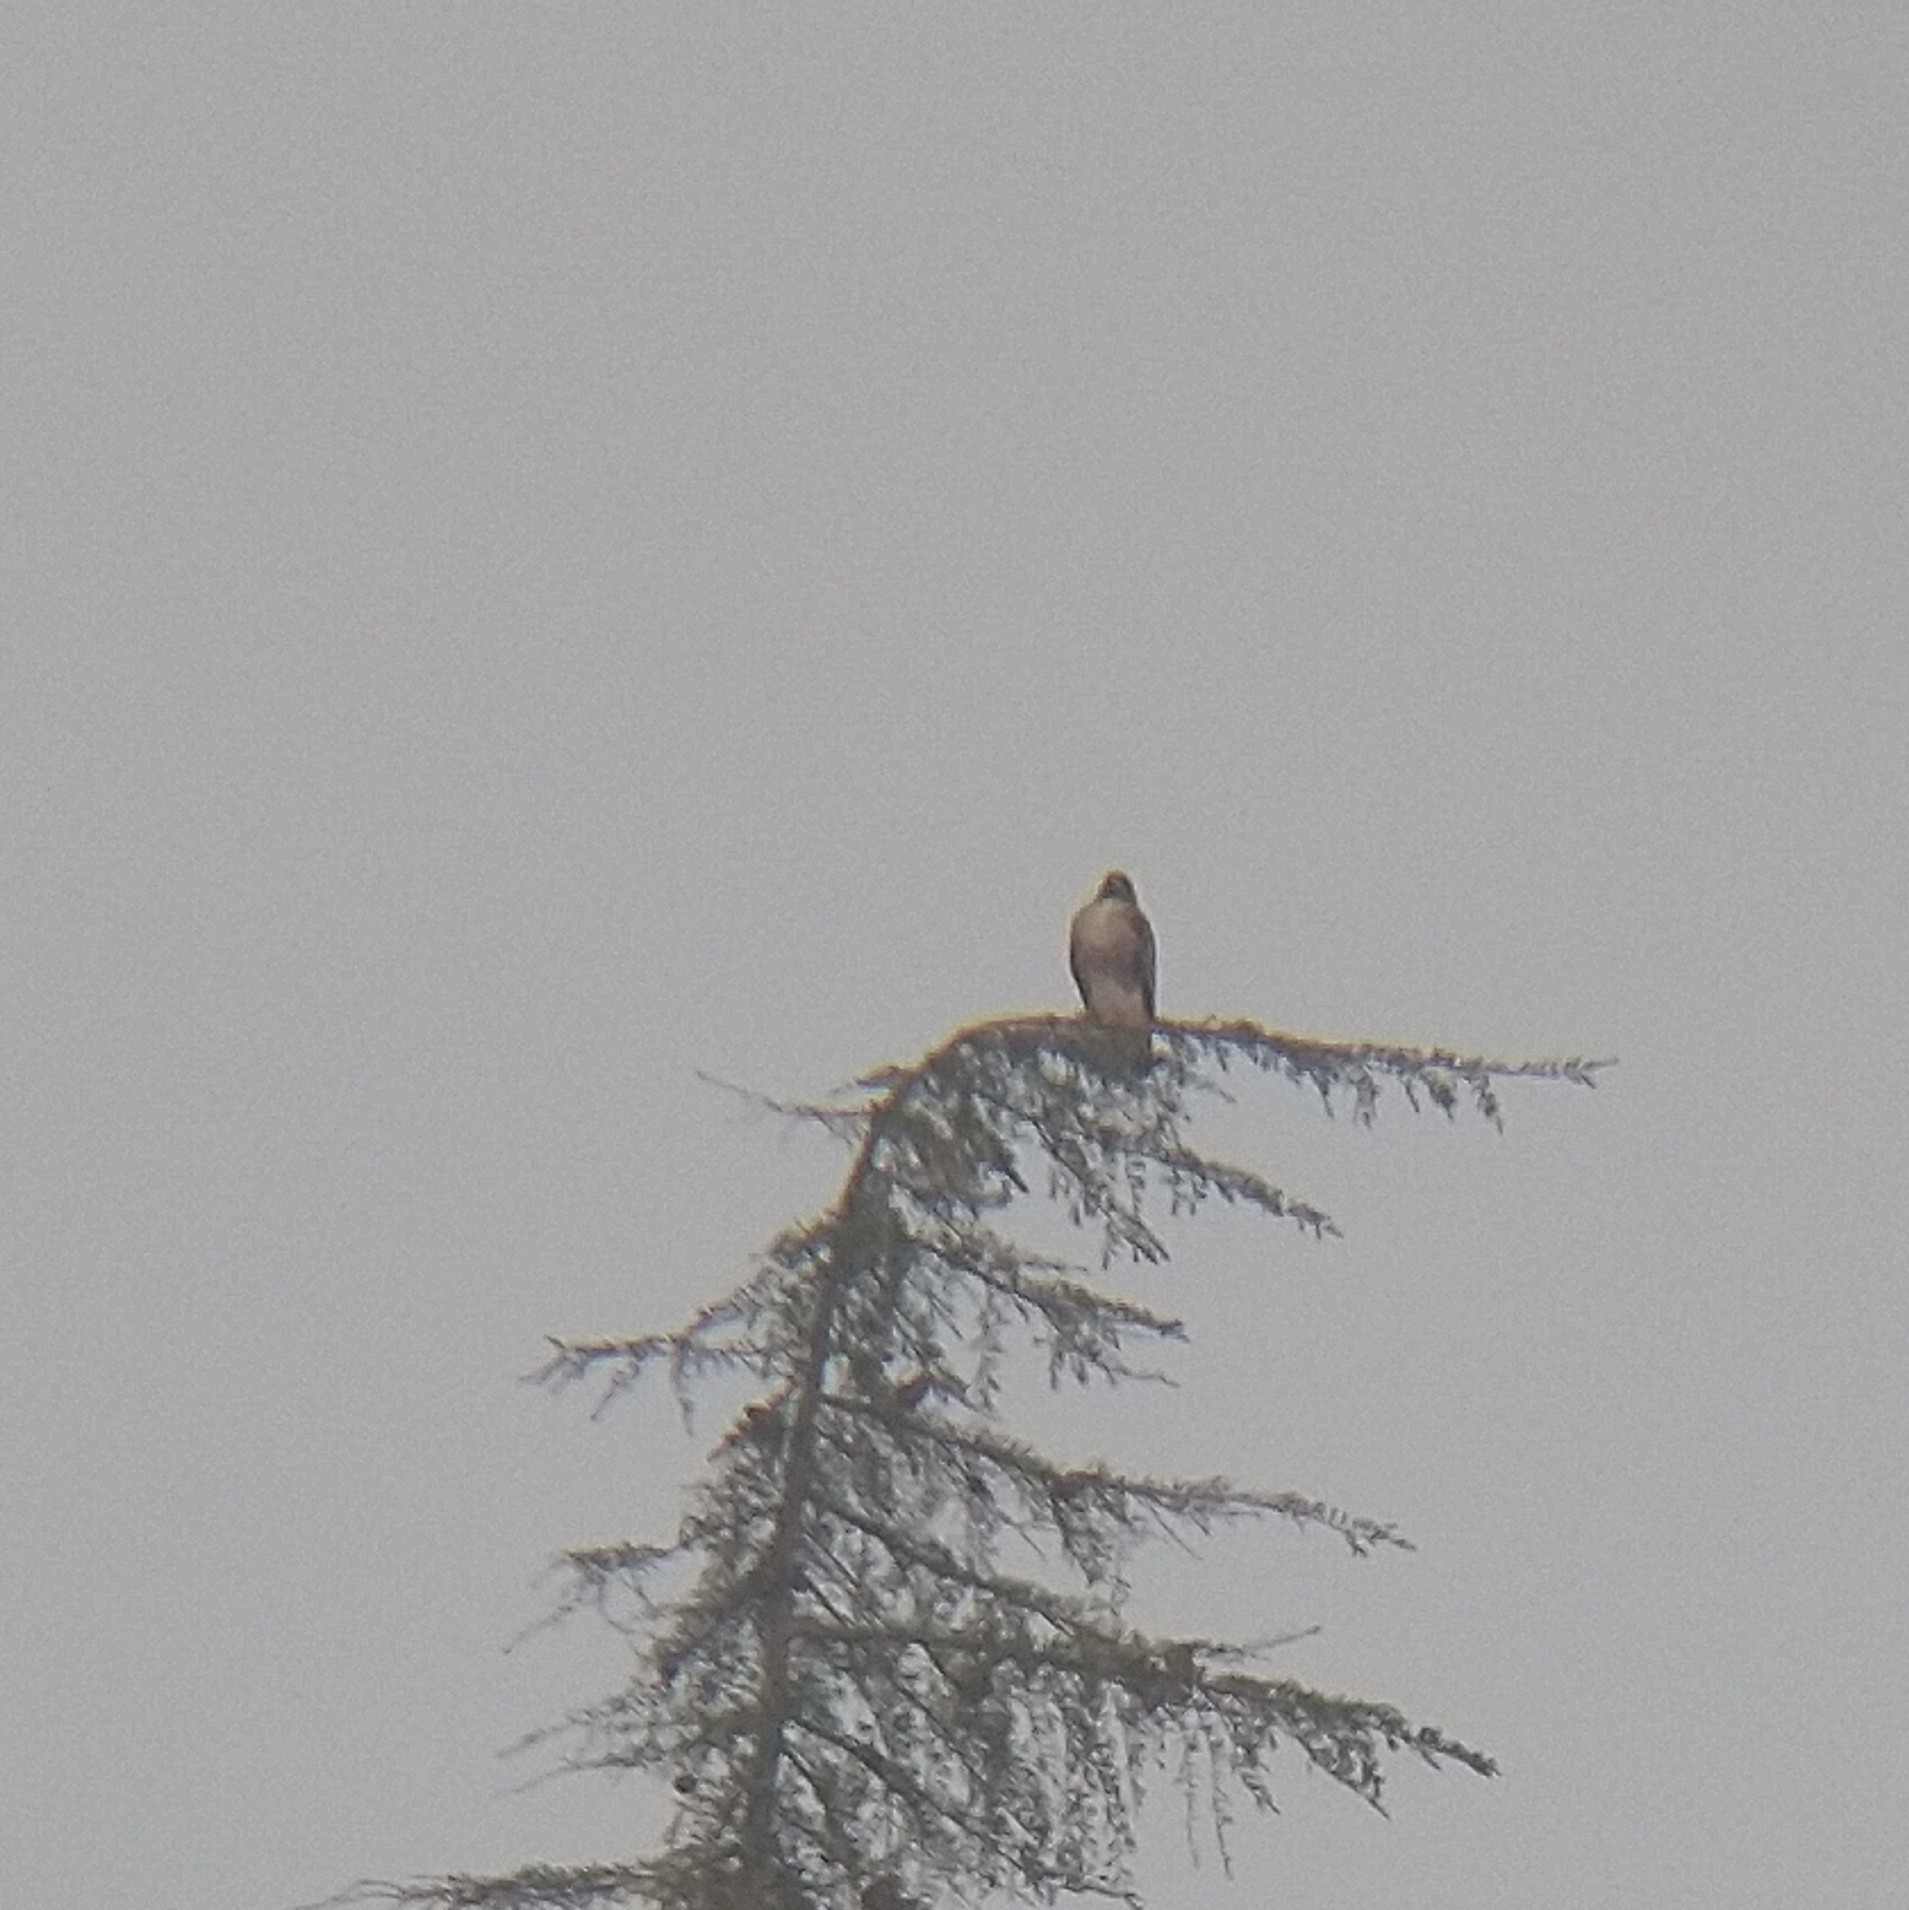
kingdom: Animalia
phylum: Chordata
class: Aves
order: Accipitriformes
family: Accipitridae
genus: Buteo
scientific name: Buteo jamaicensis
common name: Red-tailed hawk
